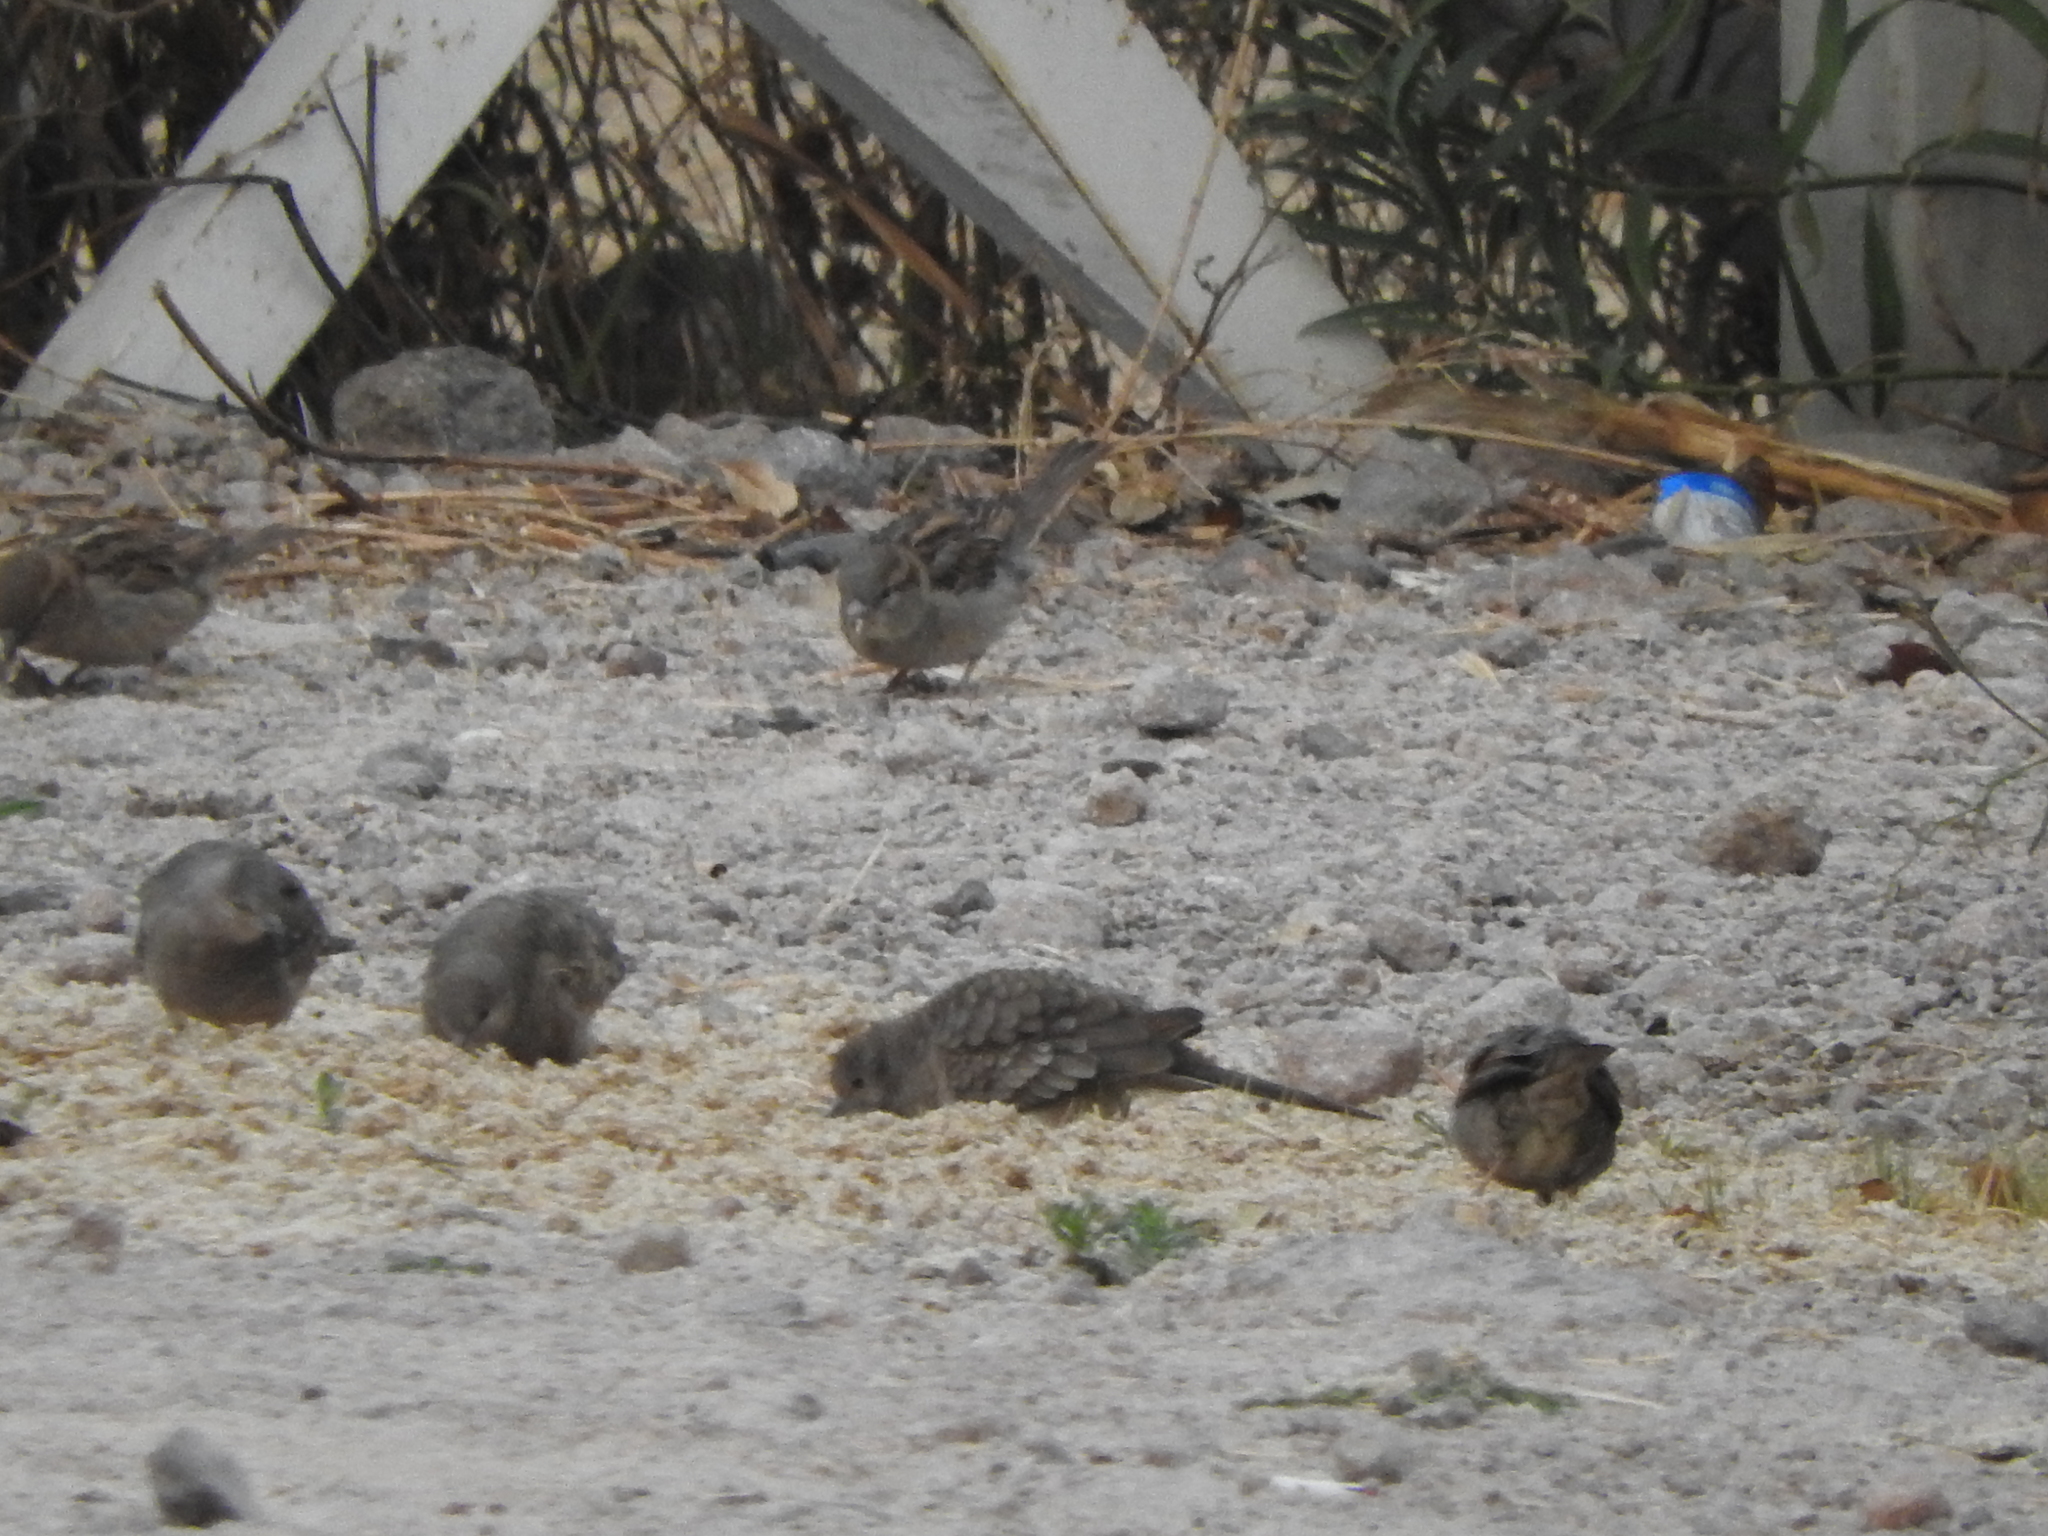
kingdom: Animalia
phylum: Chordata
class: Aves
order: Passeriformes
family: Passeridae
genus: Passer
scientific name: Passer domesticus
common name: House sparrow
